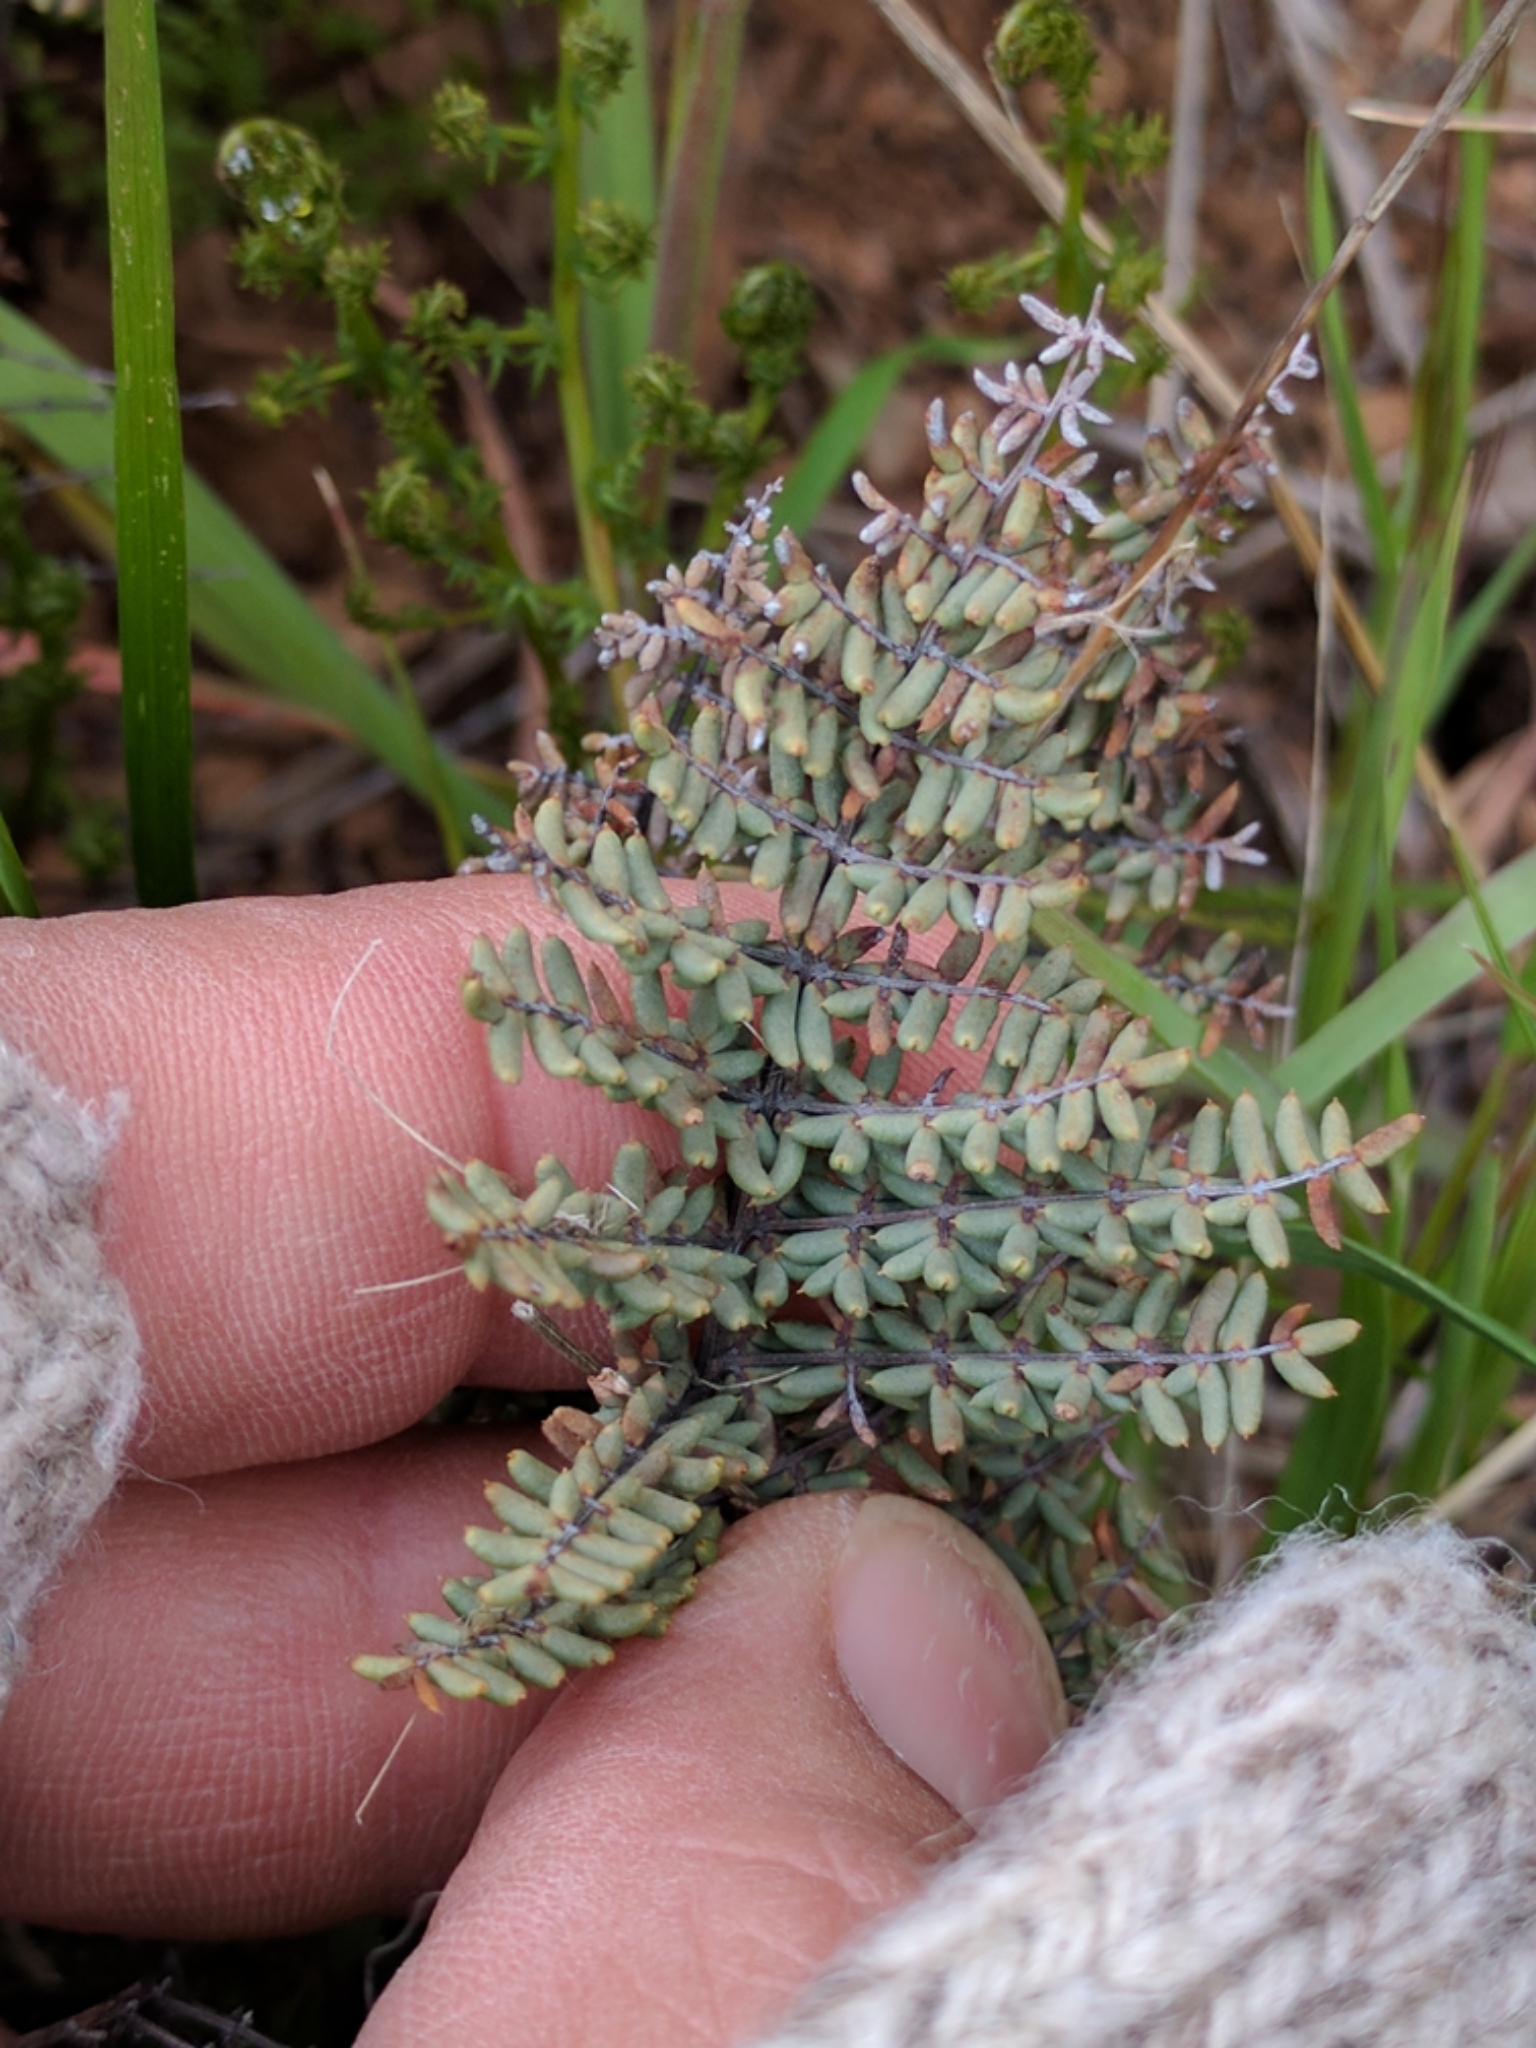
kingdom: Plantae
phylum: Tracheophyta
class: Polypodiopsida
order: Polypodiales
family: Pteridaceae
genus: Pellaea
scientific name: Pellaea mucronata
